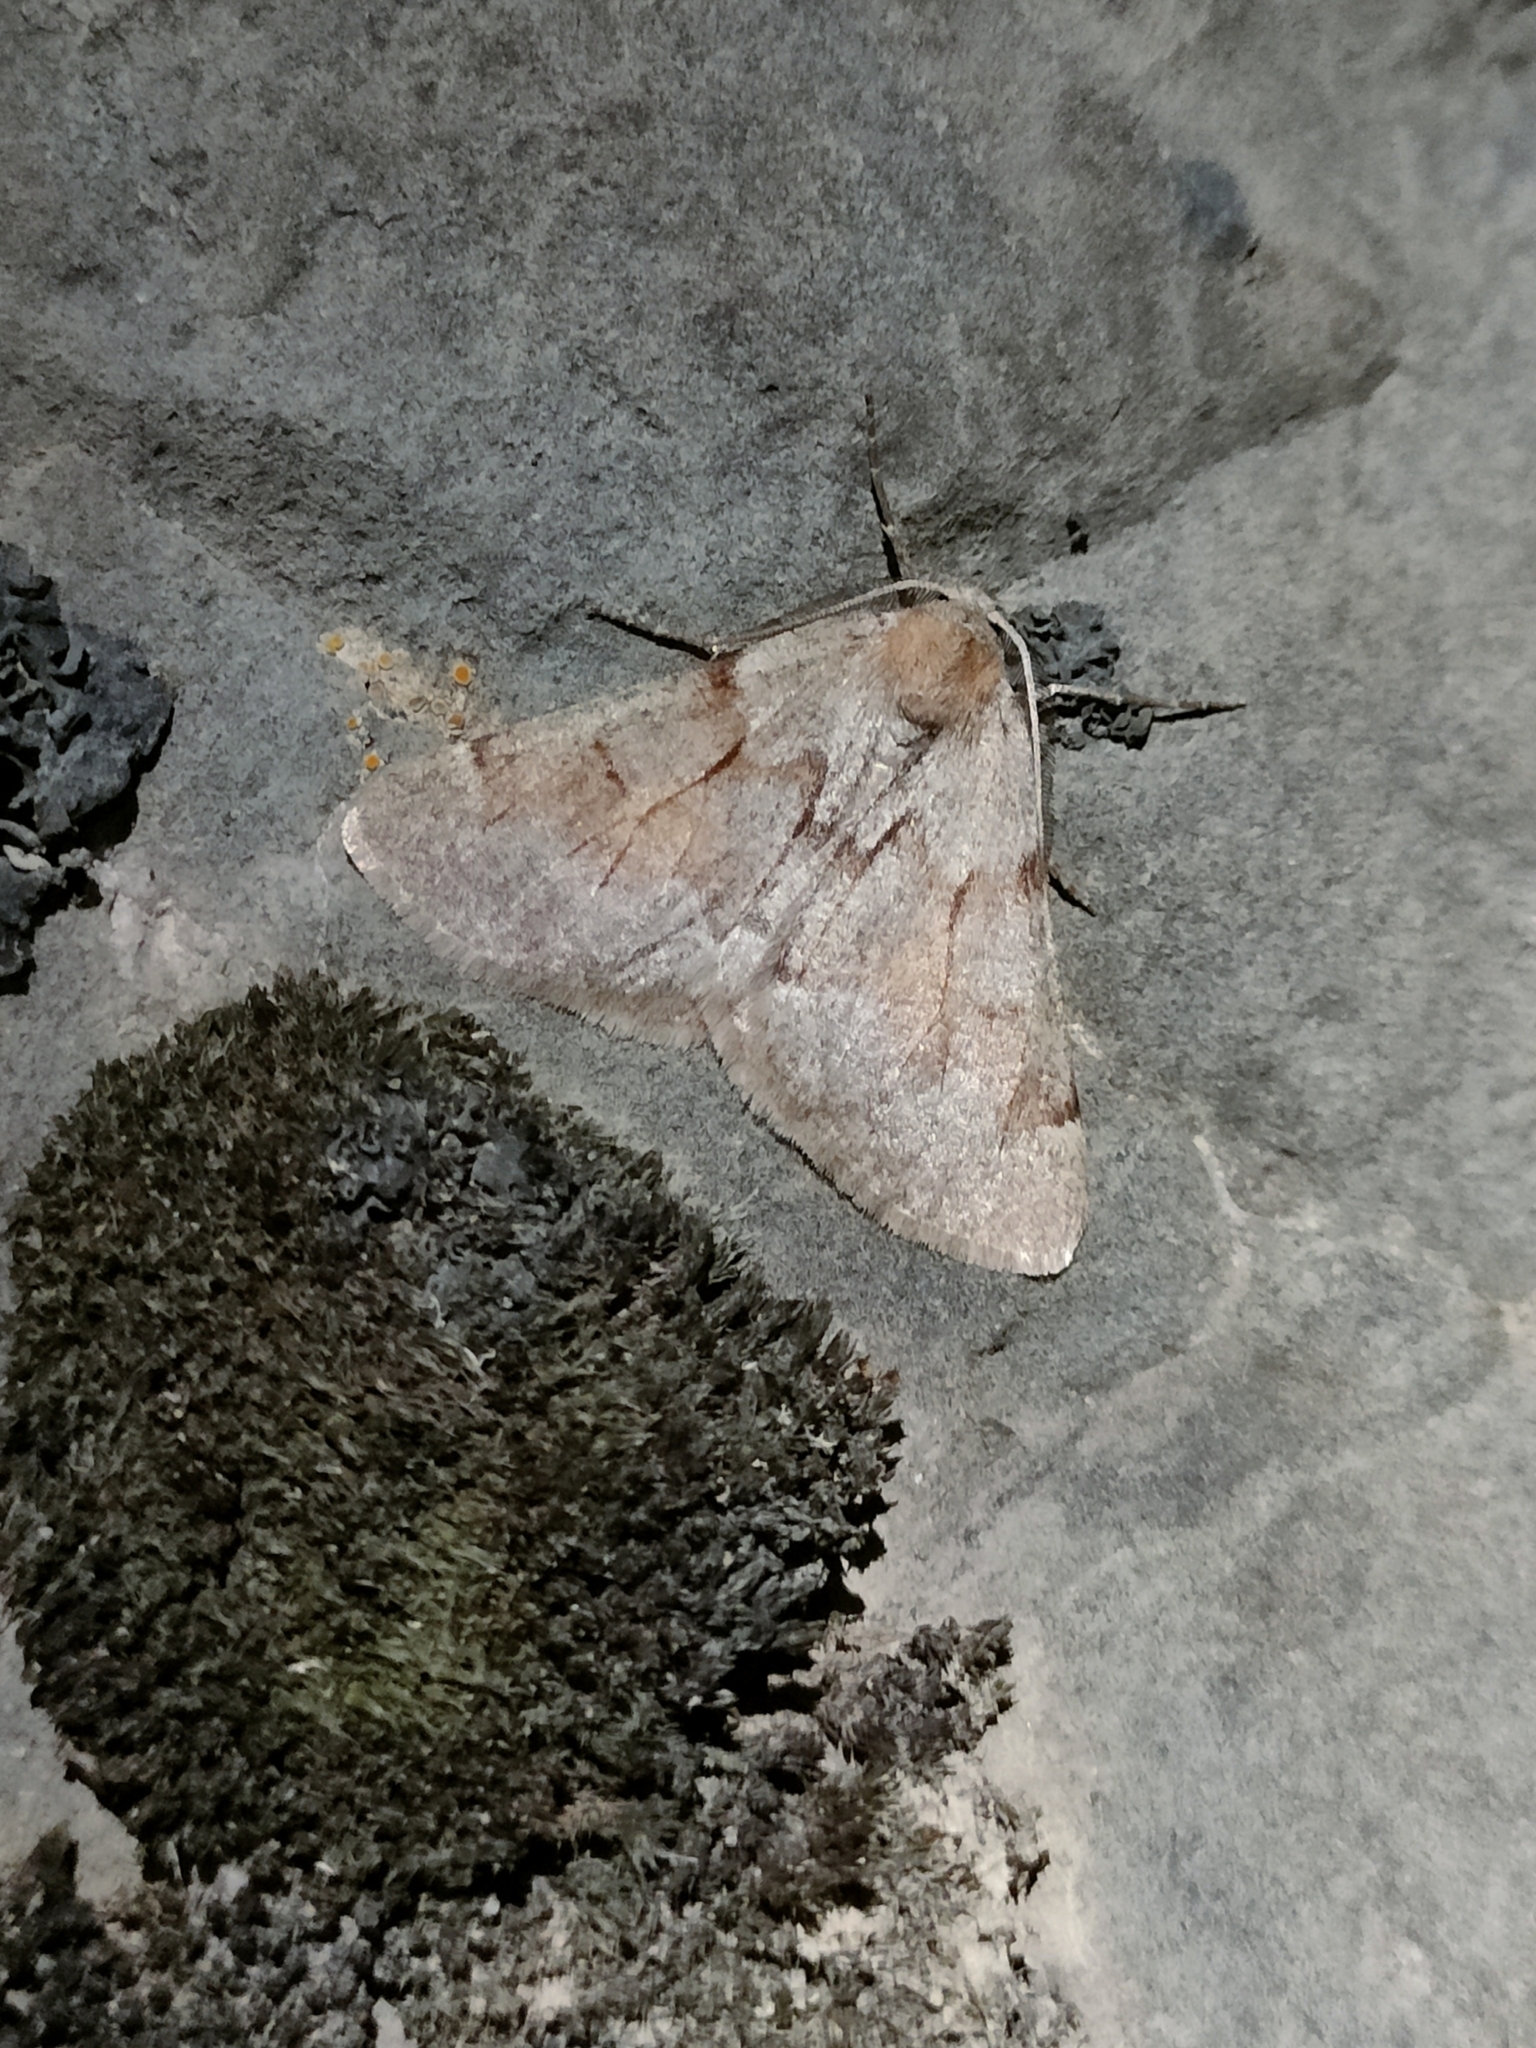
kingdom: Animalia
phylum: Arthropoda
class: Insecta
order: Lepidoptera
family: Geometridae
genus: Adalbertia
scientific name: Adalbertia castiliaria
